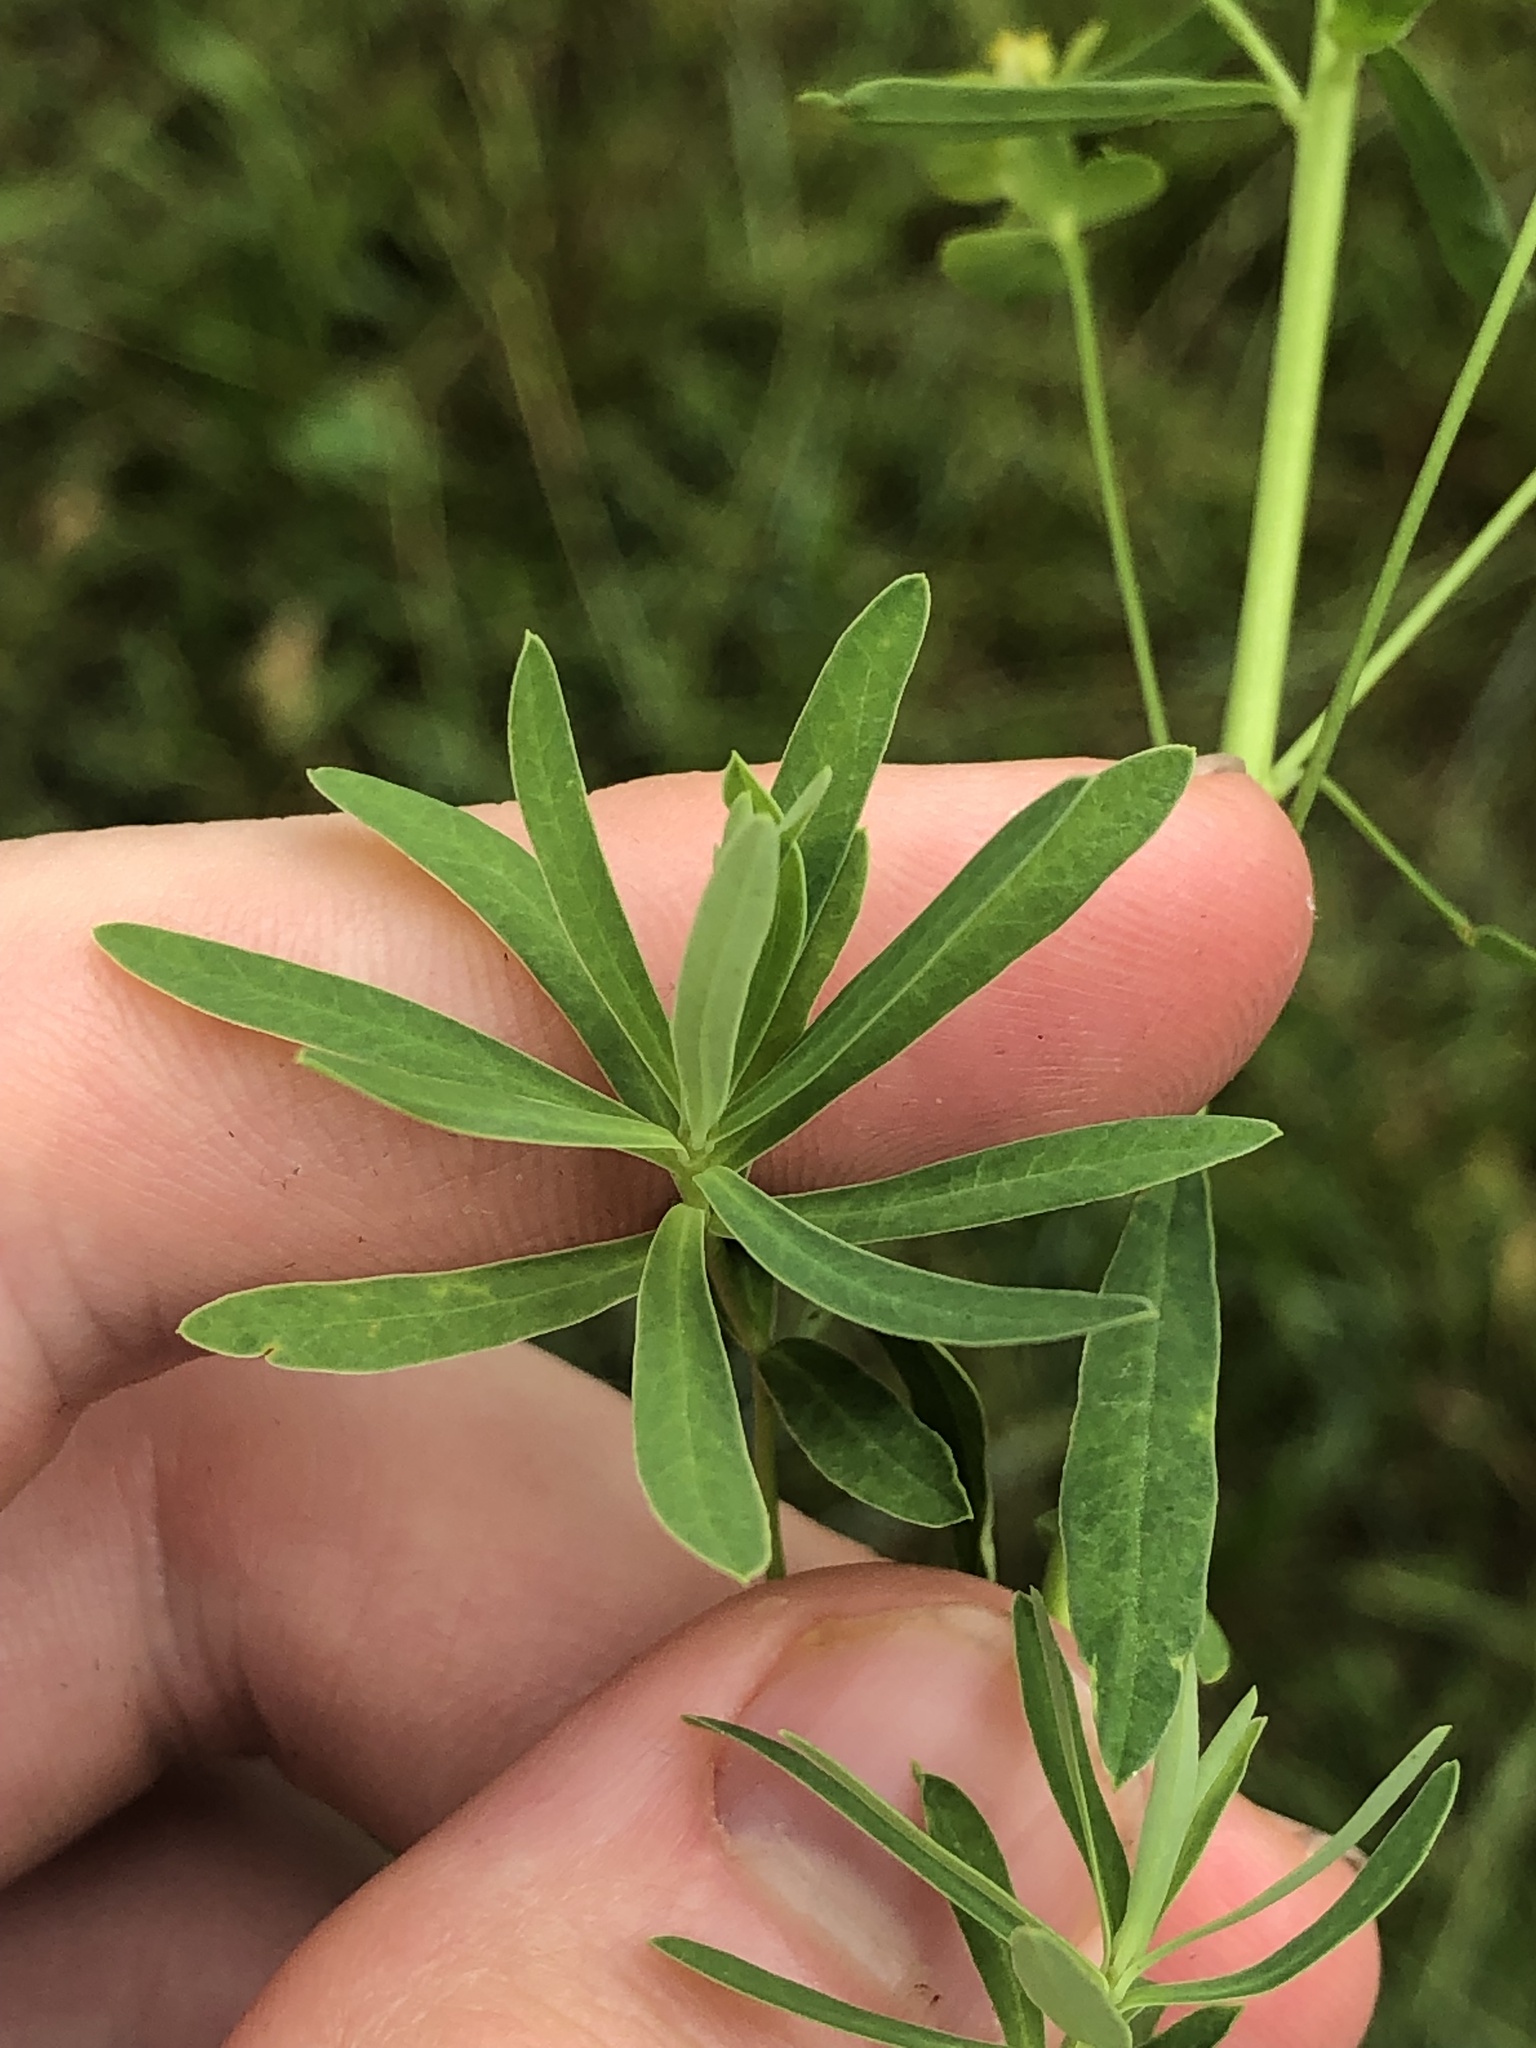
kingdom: Plantae
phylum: Tracheophyta
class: Magnoliopsida
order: Malpighiales
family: Euphorbiaceae
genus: Euphorbia
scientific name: Euphorbia esula
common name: Leafy spurge
